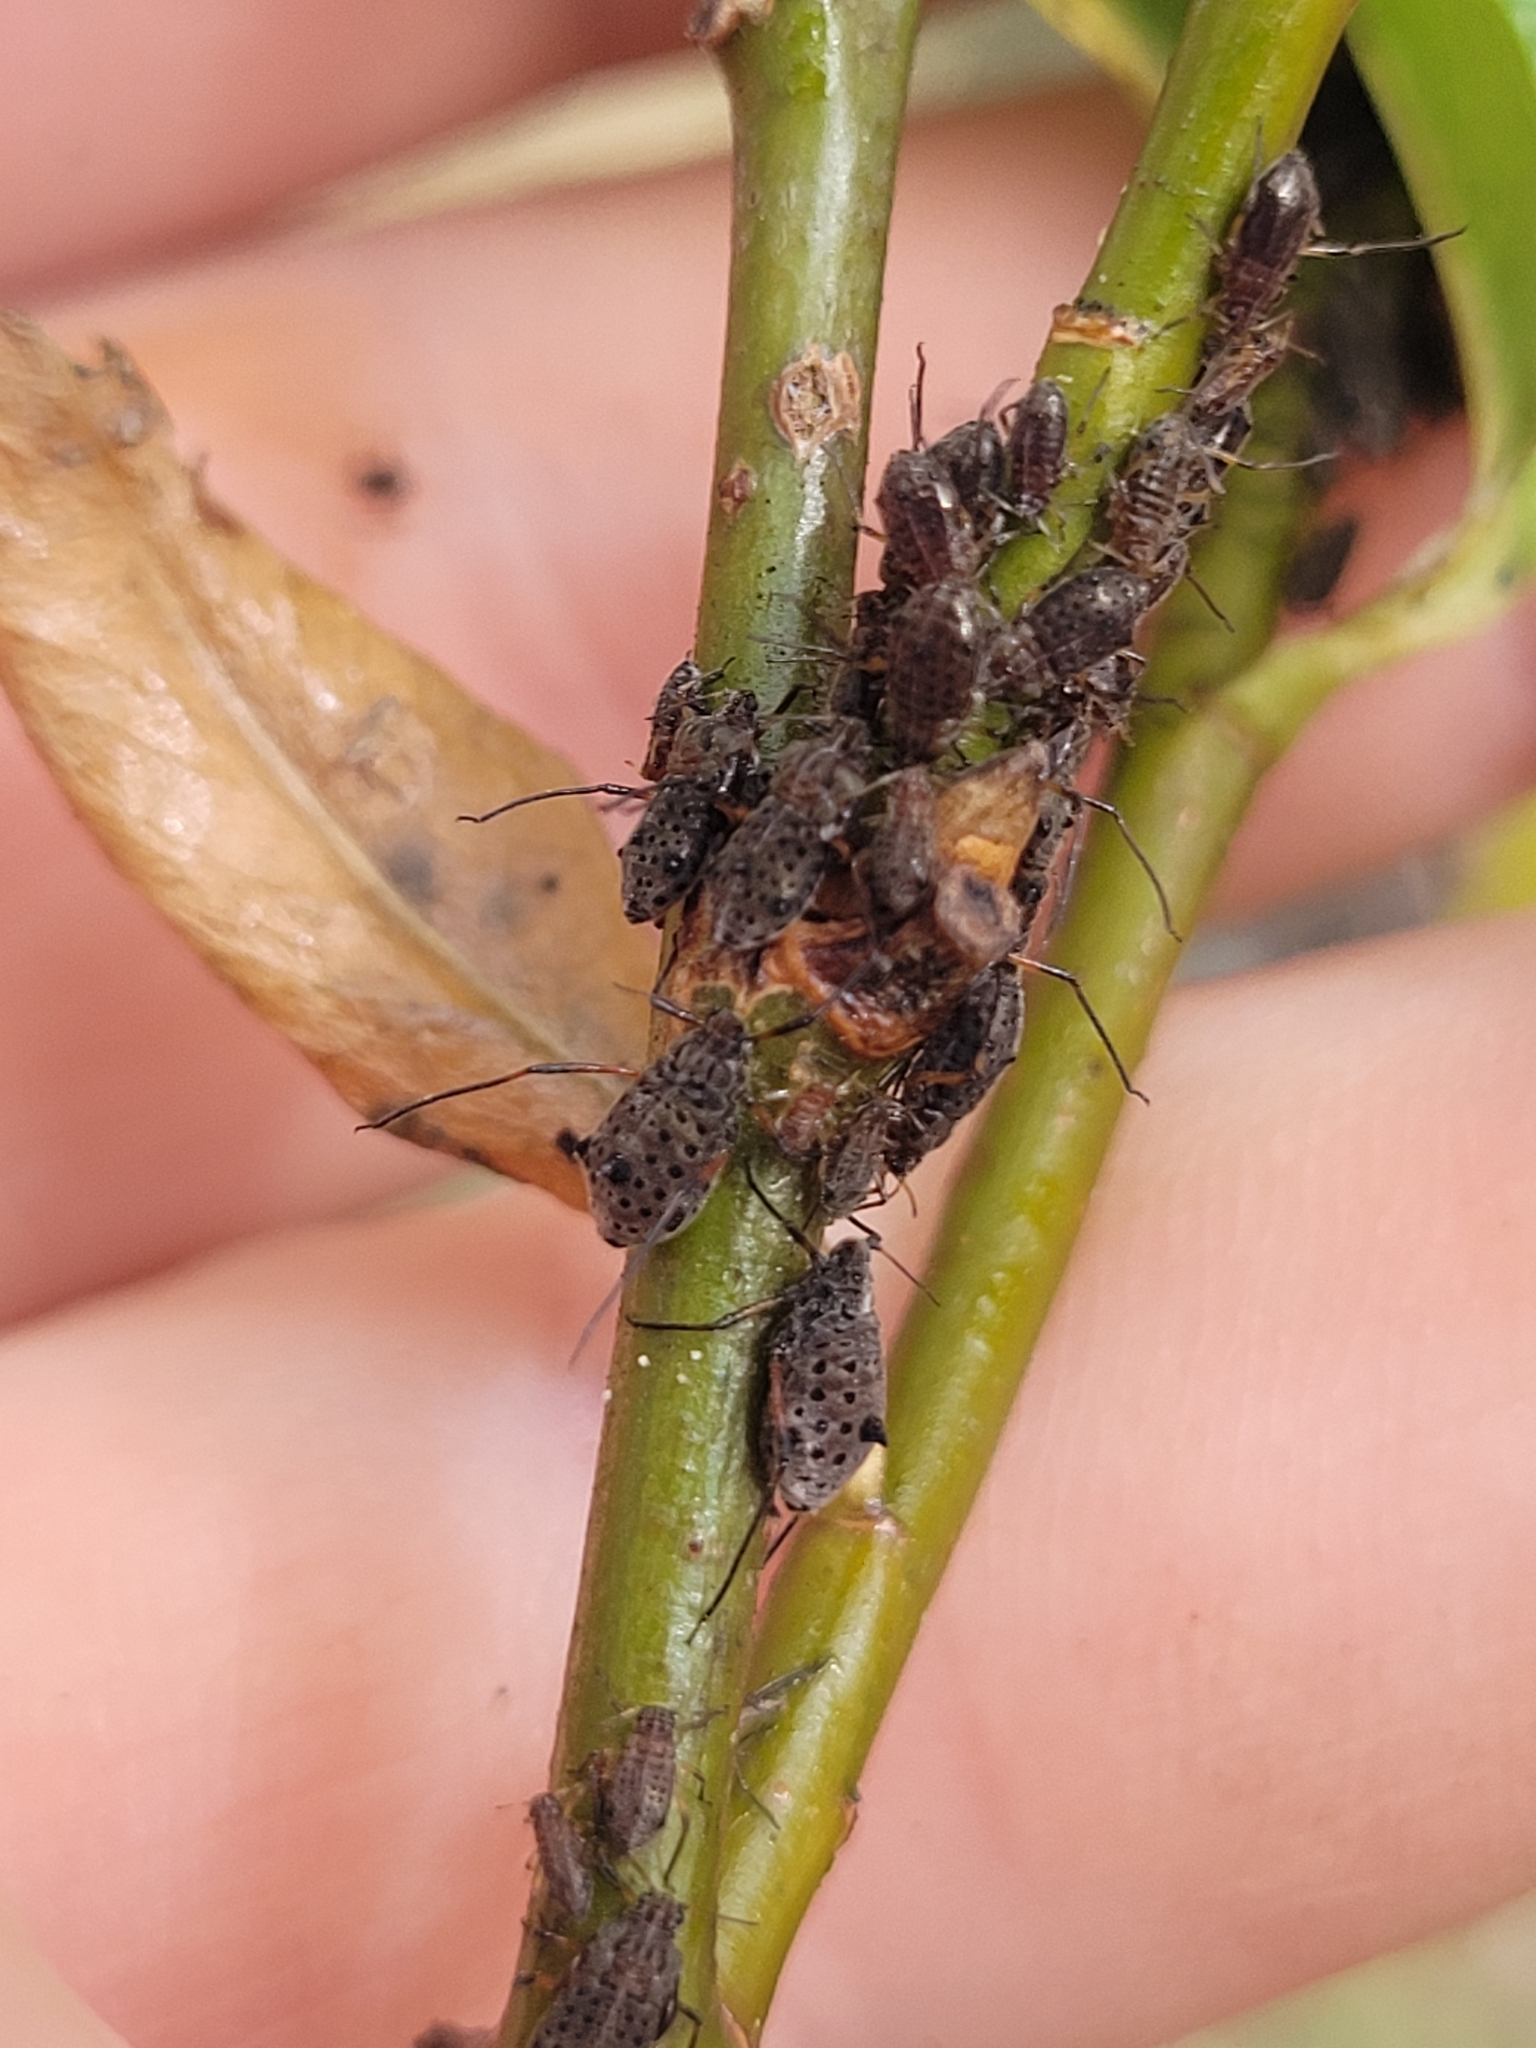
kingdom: Animalia
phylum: Arthropoda
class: Insecta
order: Hemiptera
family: Aphididae
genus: Tuberolachnus
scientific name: Tuberolachnus salignus
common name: Giant willow aphid
